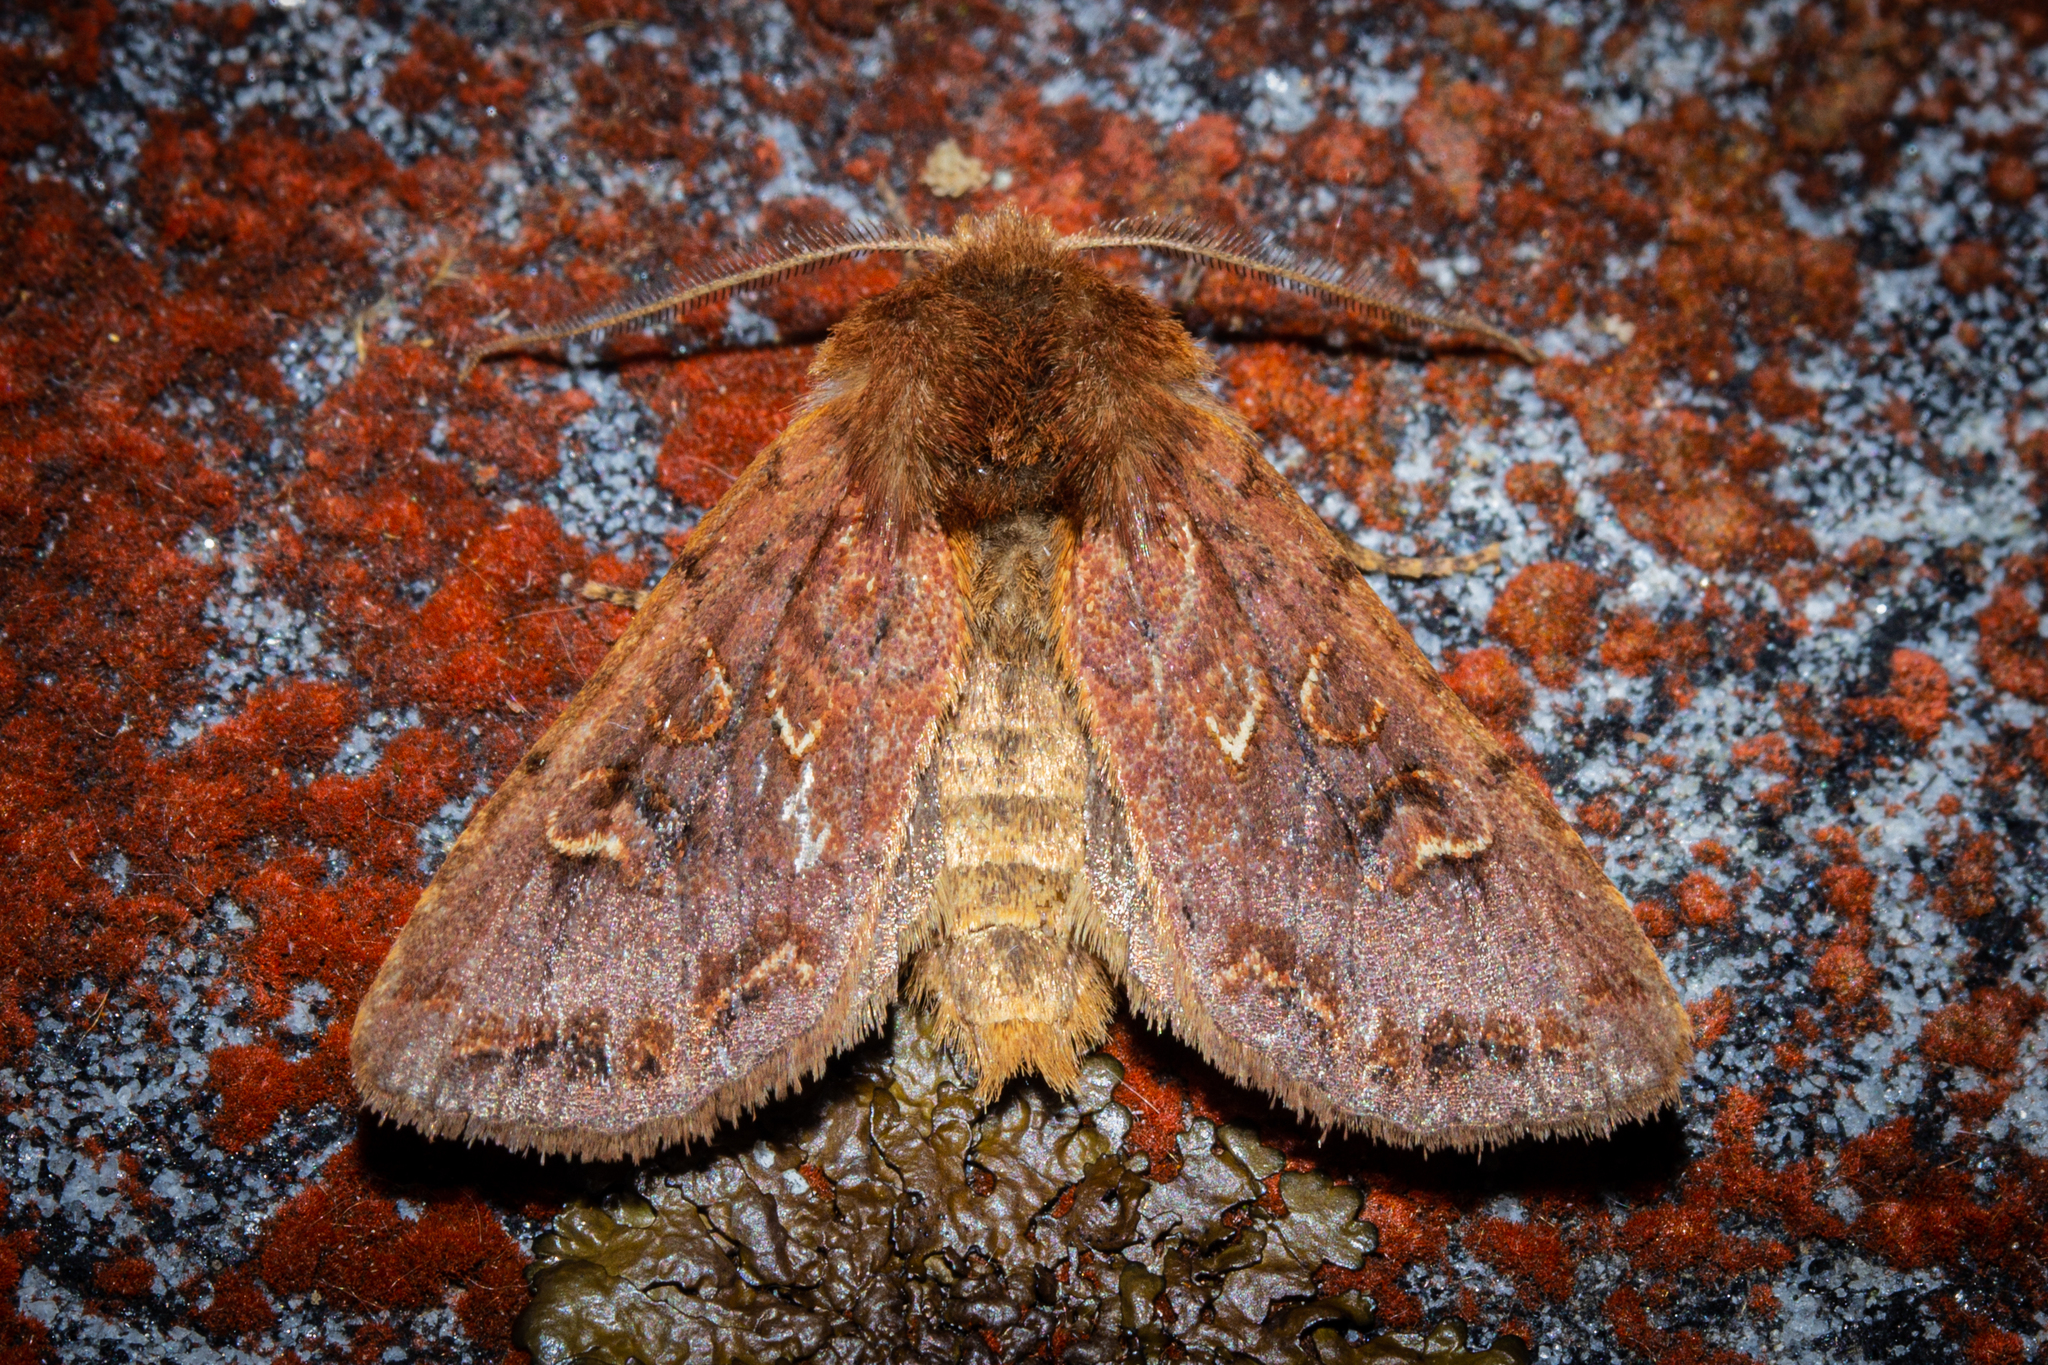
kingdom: Animalia
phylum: Arthropoda
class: Insecta
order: Lepidoptera
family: Noctuidae
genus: Ichneutica
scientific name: Ichneutica
